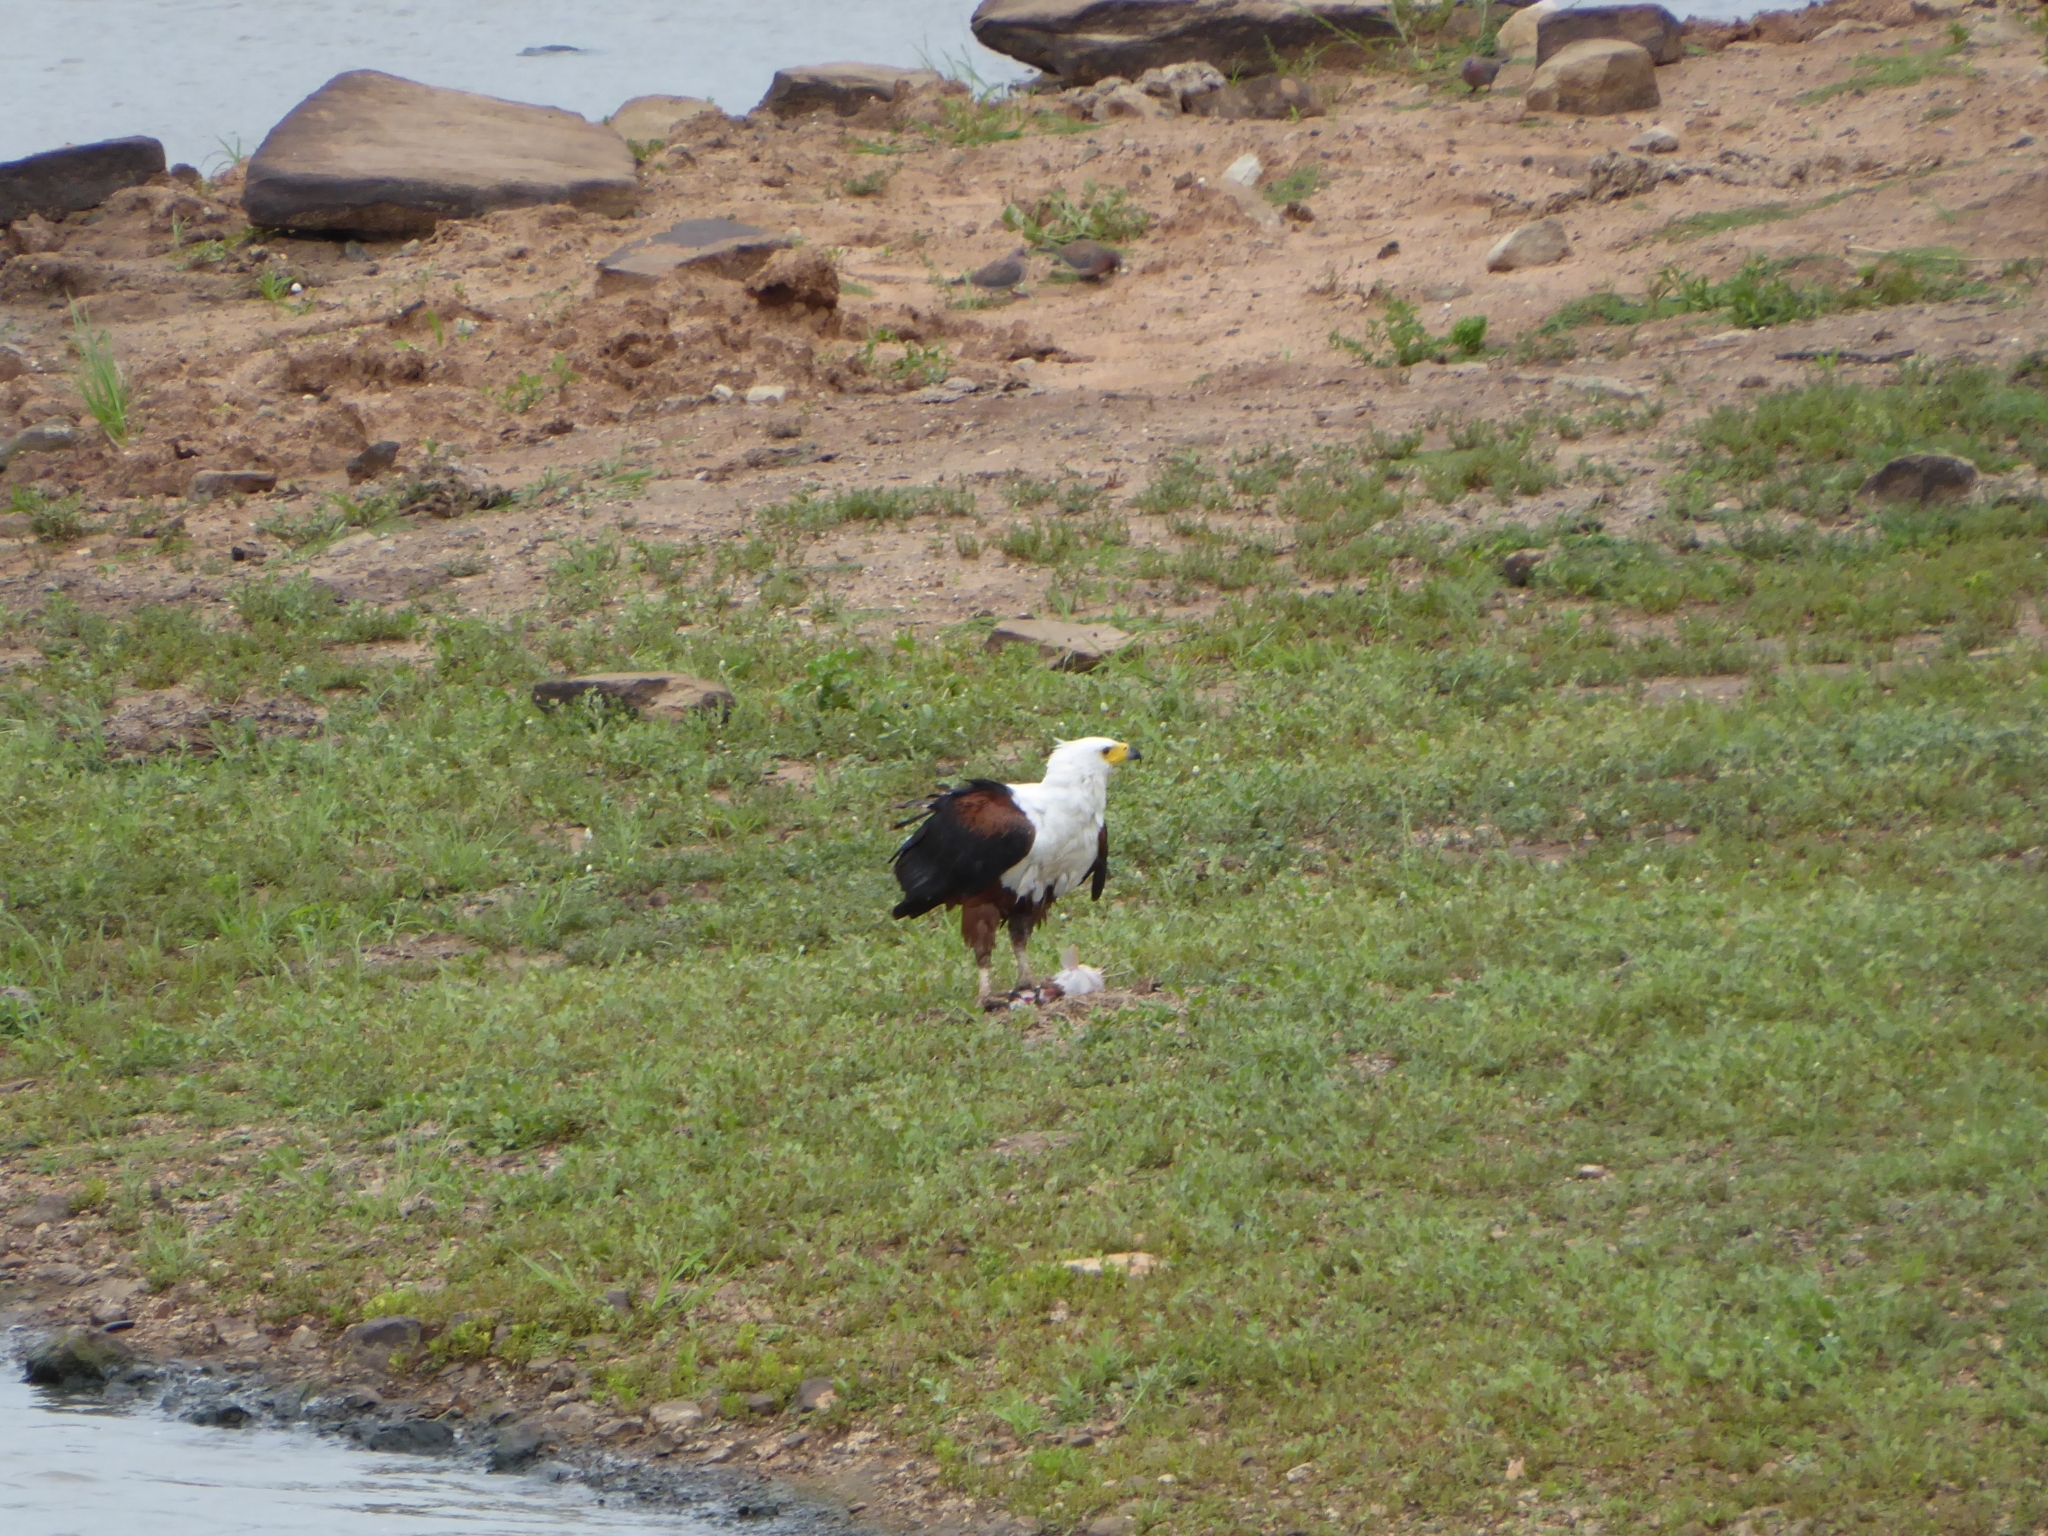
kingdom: Animalia
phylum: Chordata
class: Aves
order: Accipitriformes
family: Accipitridae
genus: Haliaeetus
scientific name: Haliaeetus vocifer
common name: African fish eagle
